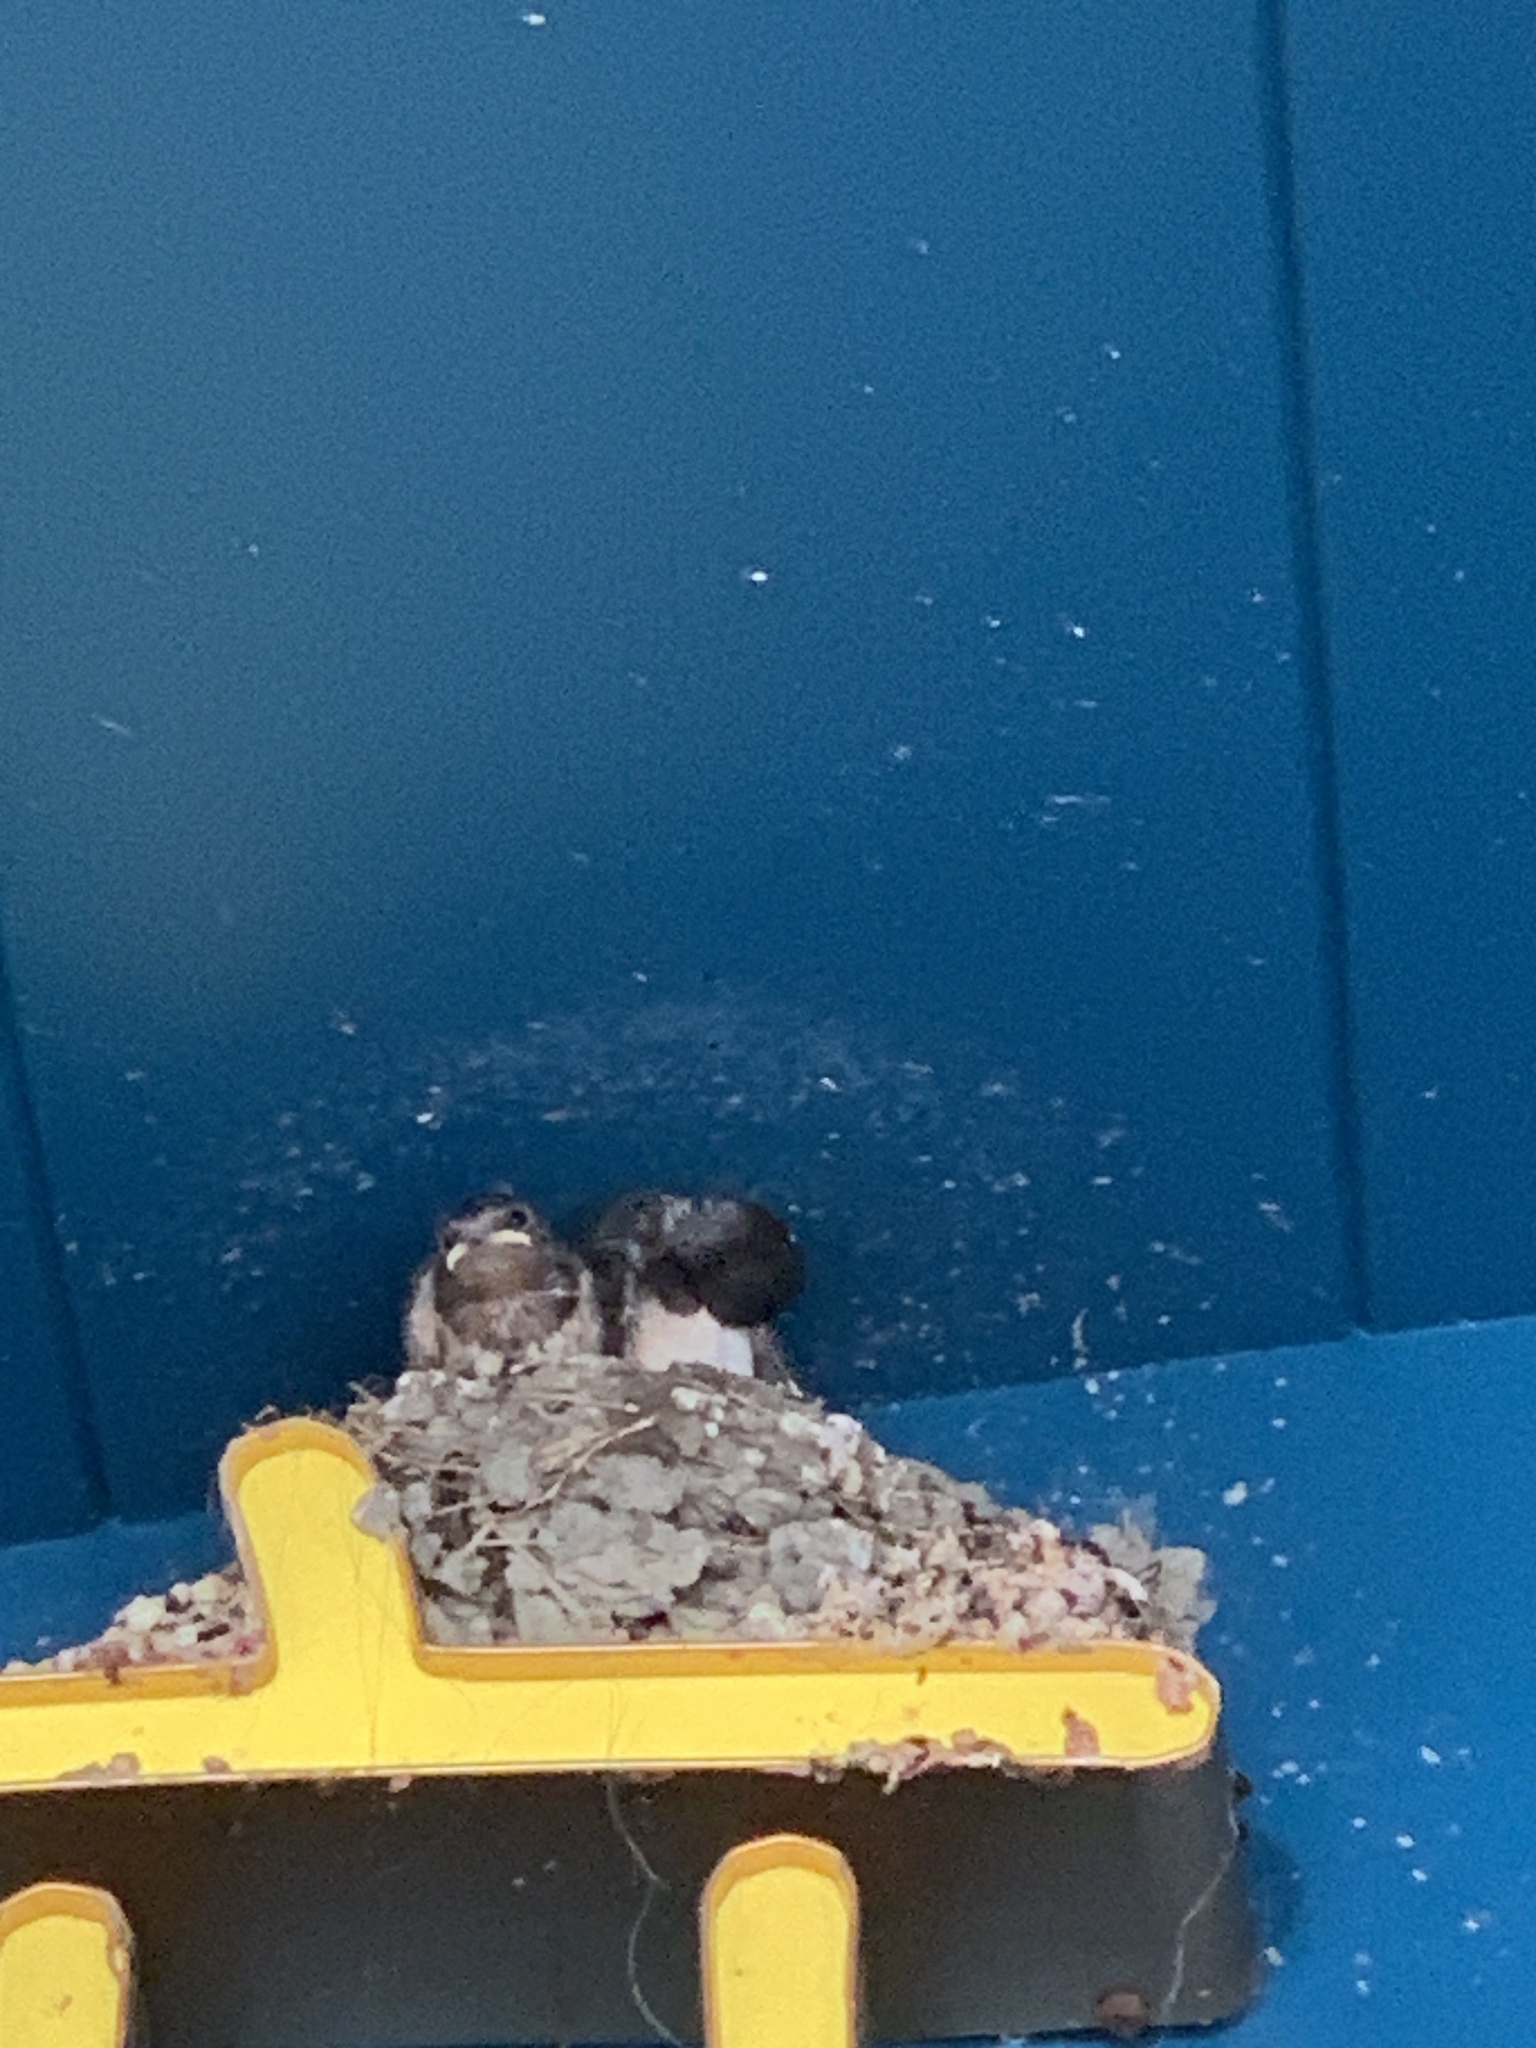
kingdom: Animalia
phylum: Chordata
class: Aves
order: Passeriformes
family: Hirundinidae
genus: Hirundo
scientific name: Hirundo rustica
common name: Barn swallow
